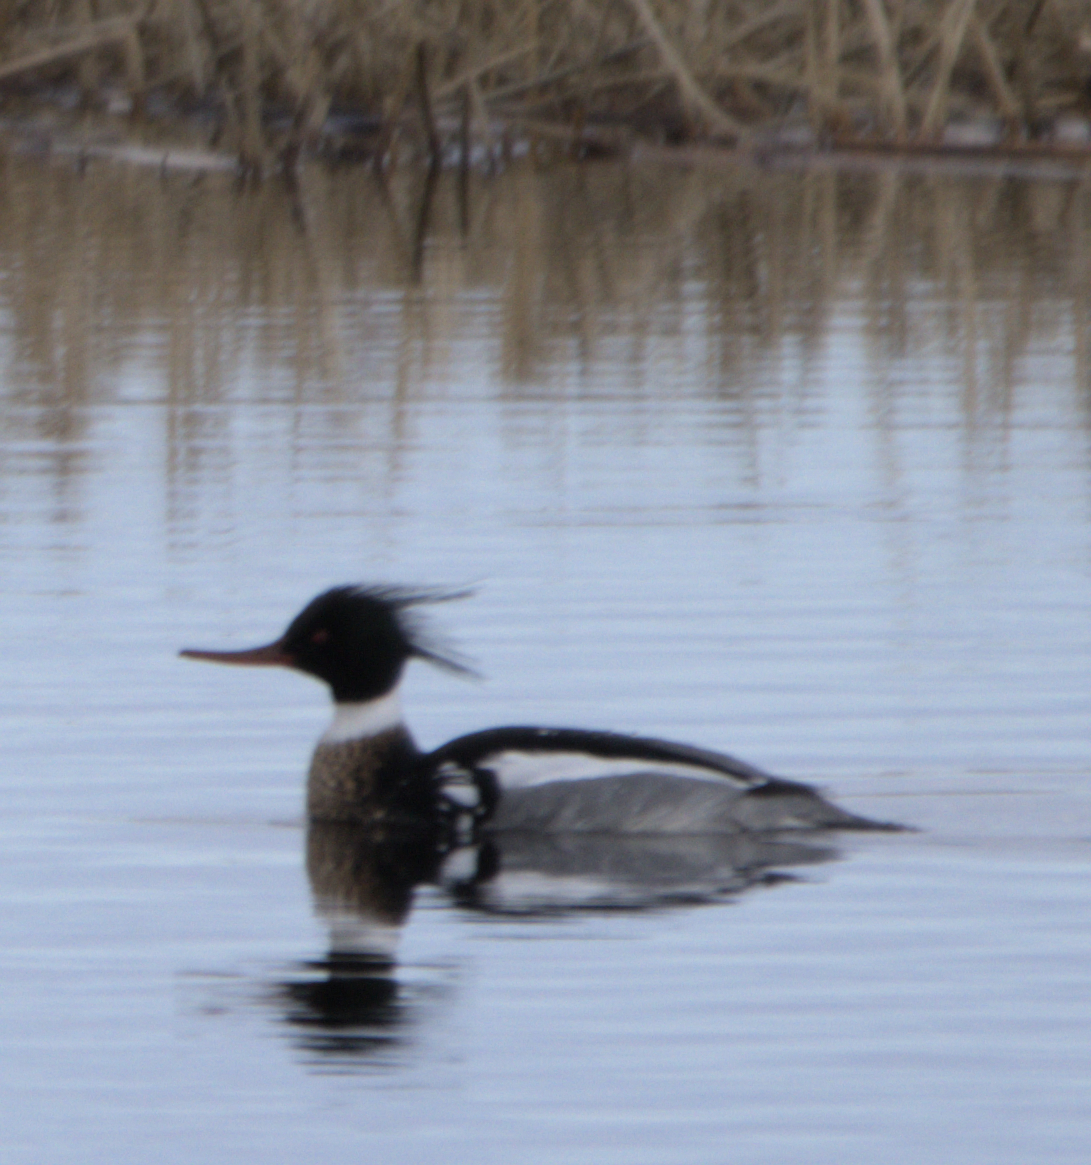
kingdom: Animalia
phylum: Chordata
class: Aves
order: Anseriformes
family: Anatidae
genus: Mergus
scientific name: Mergus serrator
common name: Red-breasted merganser
